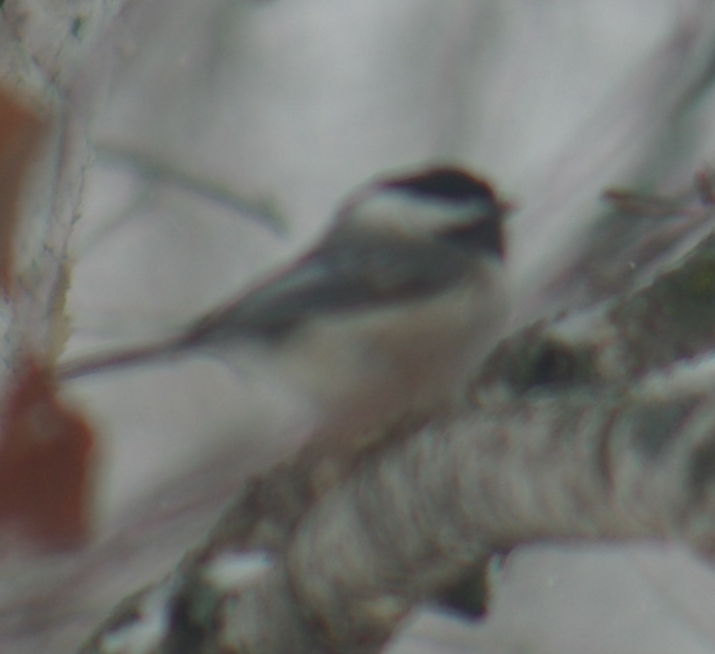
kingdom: Animalia
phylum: Chordata
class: Aves
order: Passeriformes
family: Paridae
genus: Poecile
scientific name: Poecile atricapillus
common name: Black-capped chickadee
